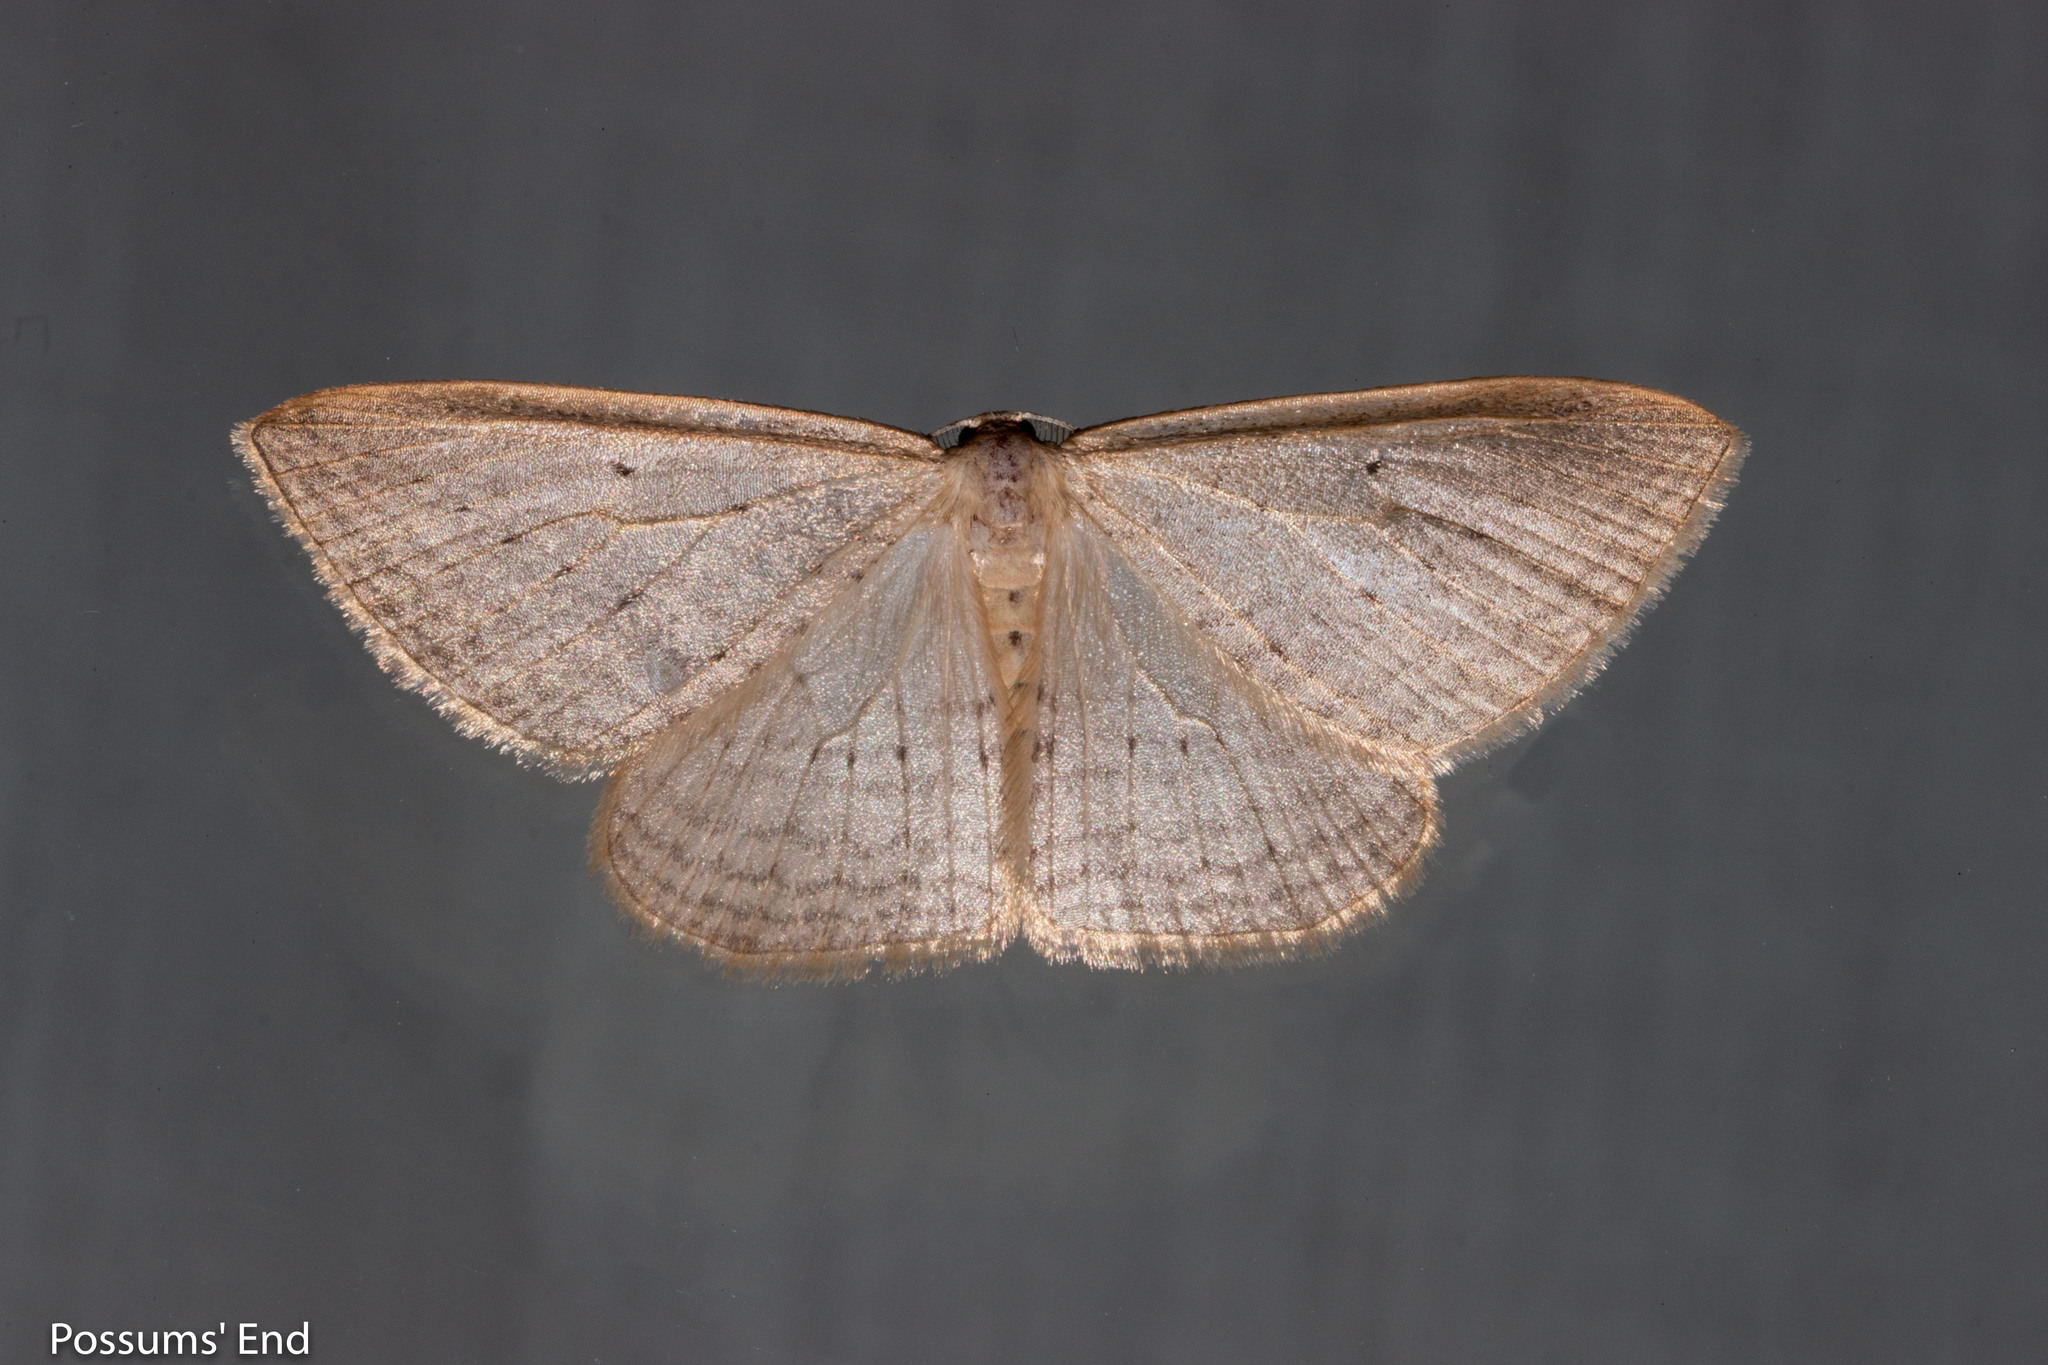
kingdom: Animalia
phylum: Arthropoda
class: Insecta
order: Lepidoptera
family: Geometridae
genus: Orthoclydon
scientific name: Orthoclydon praefectata
